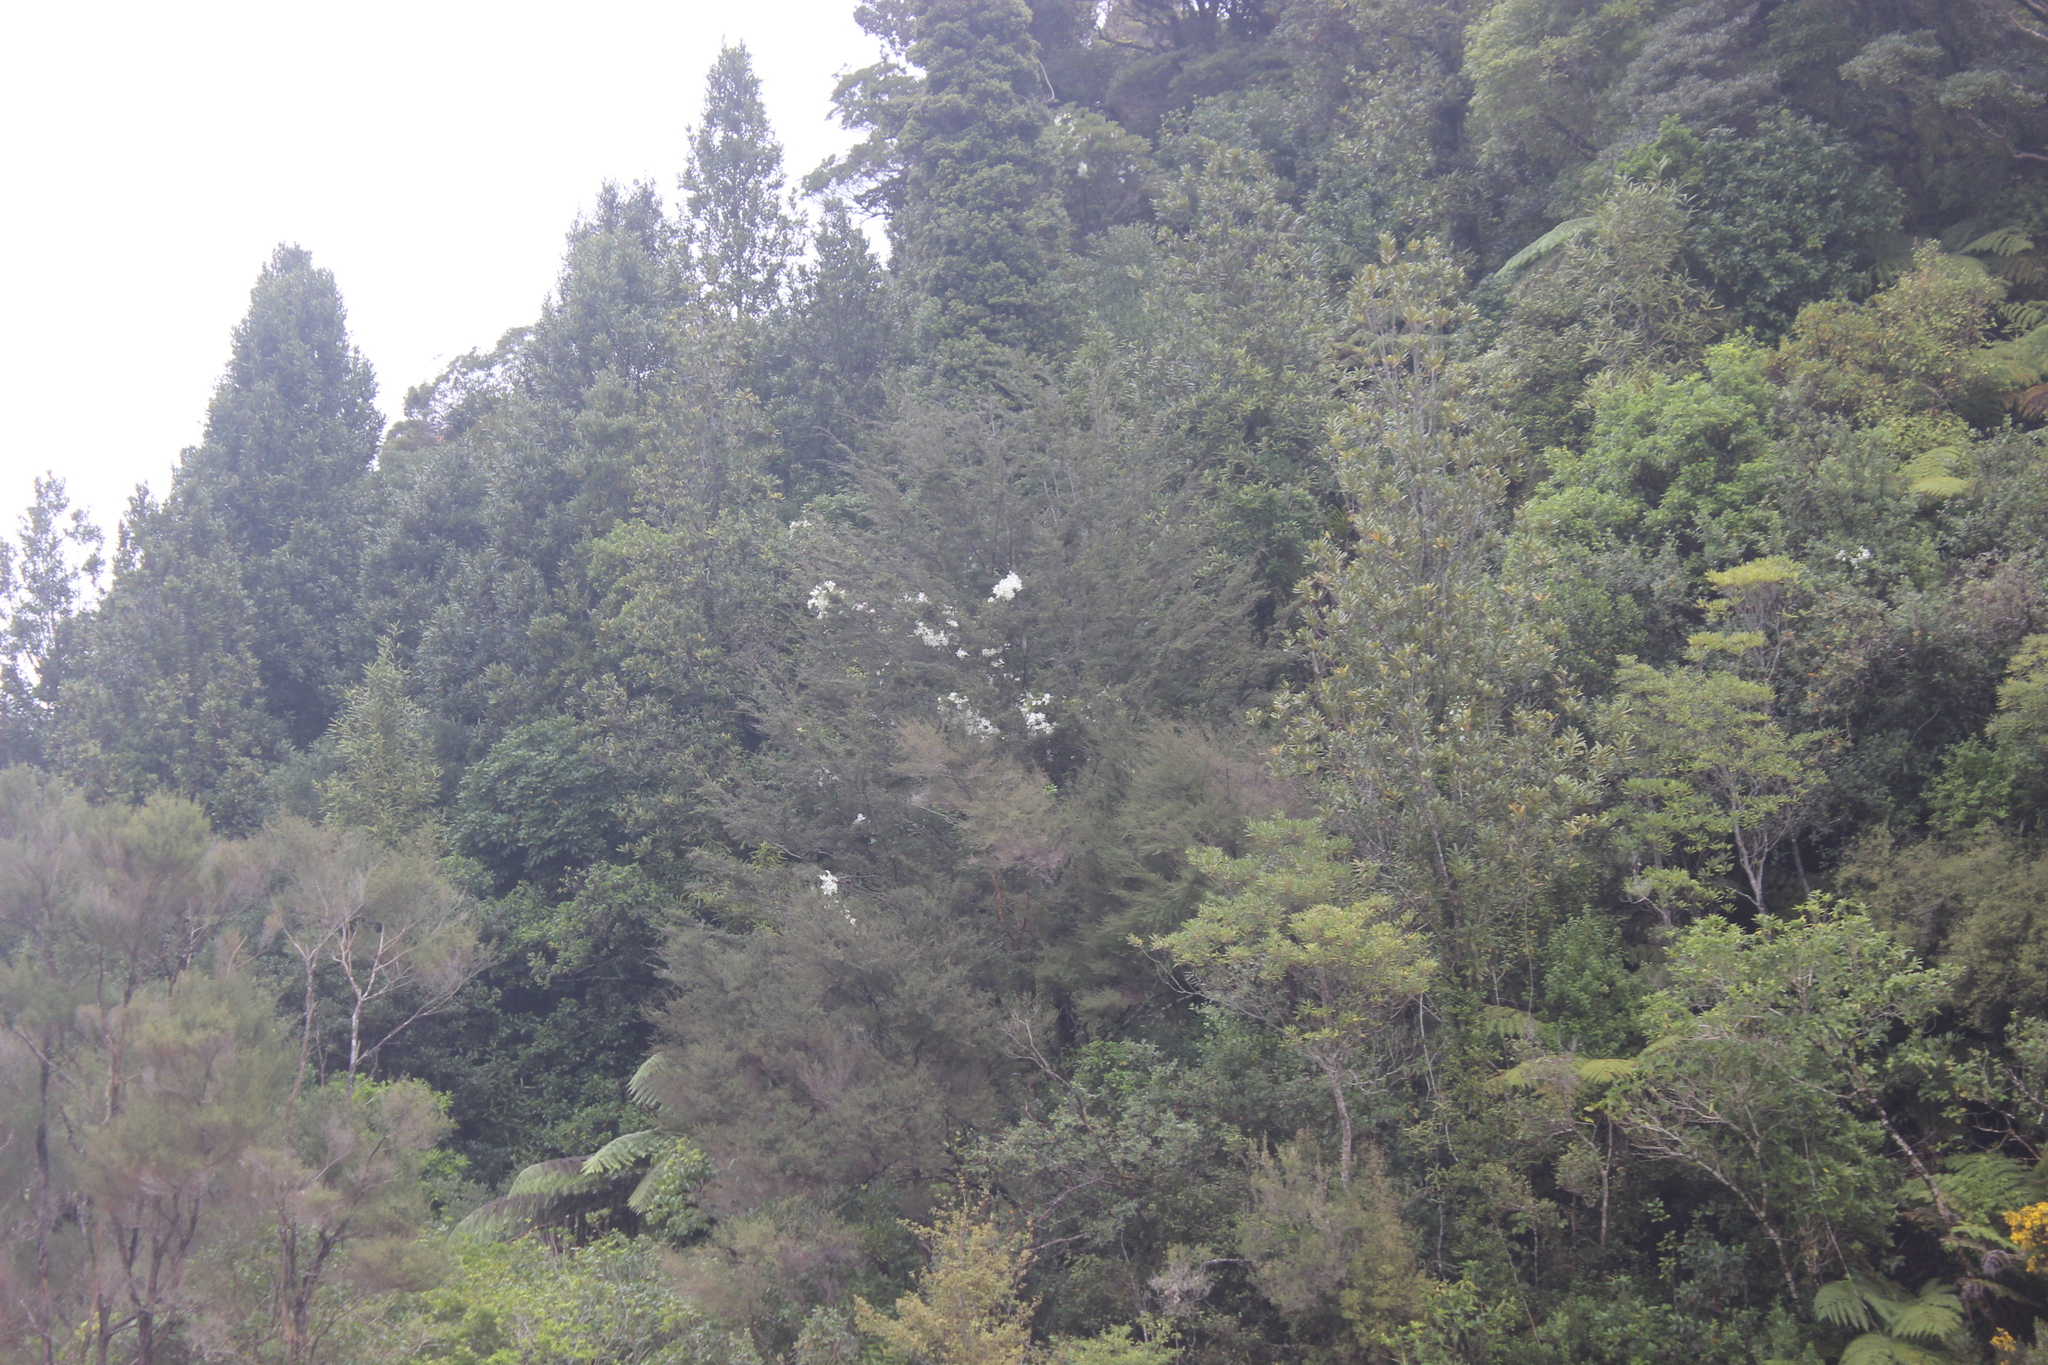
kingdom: Plantae
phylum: Tracheophyta
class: Magnoliopsida
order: Ranunculales
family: Ranunculaceae
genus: Clematis
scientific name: Clematis paniculata
